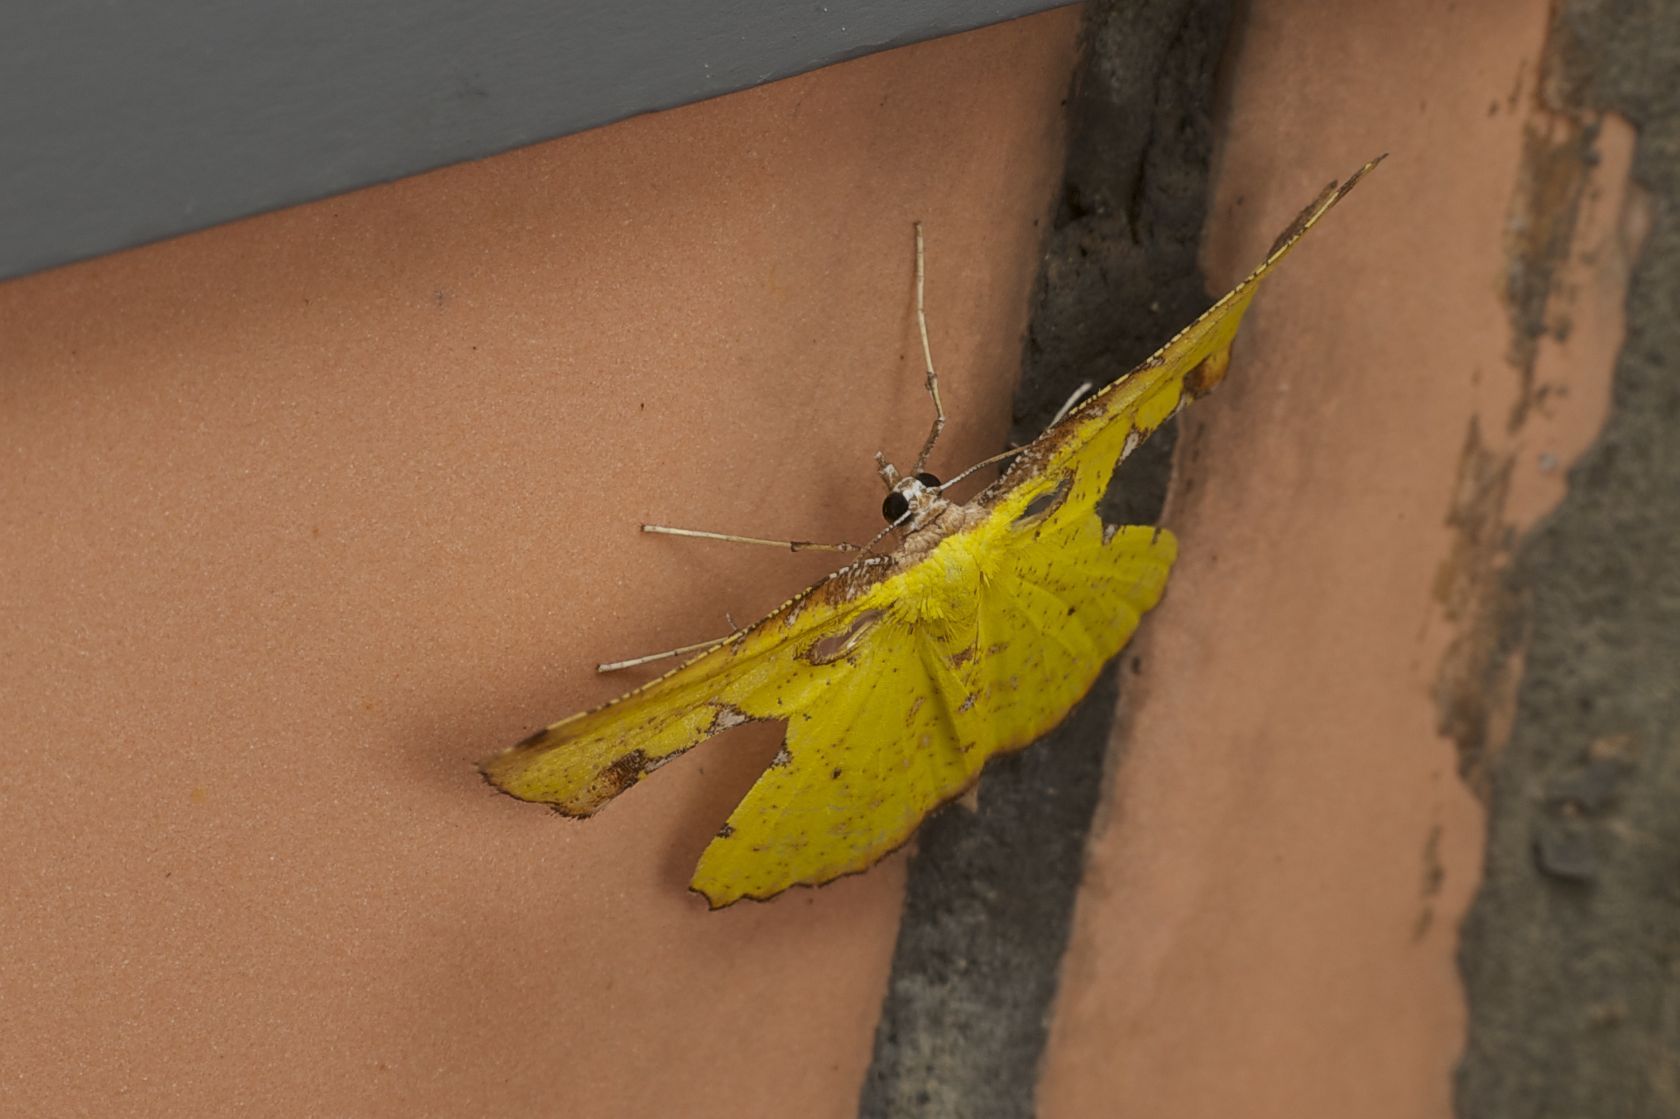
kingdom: Animalia
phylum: Arthropoda
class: Insecta
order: Lepidoptera
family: Geometridae
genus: Corymica
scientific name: Corymica arnearia
